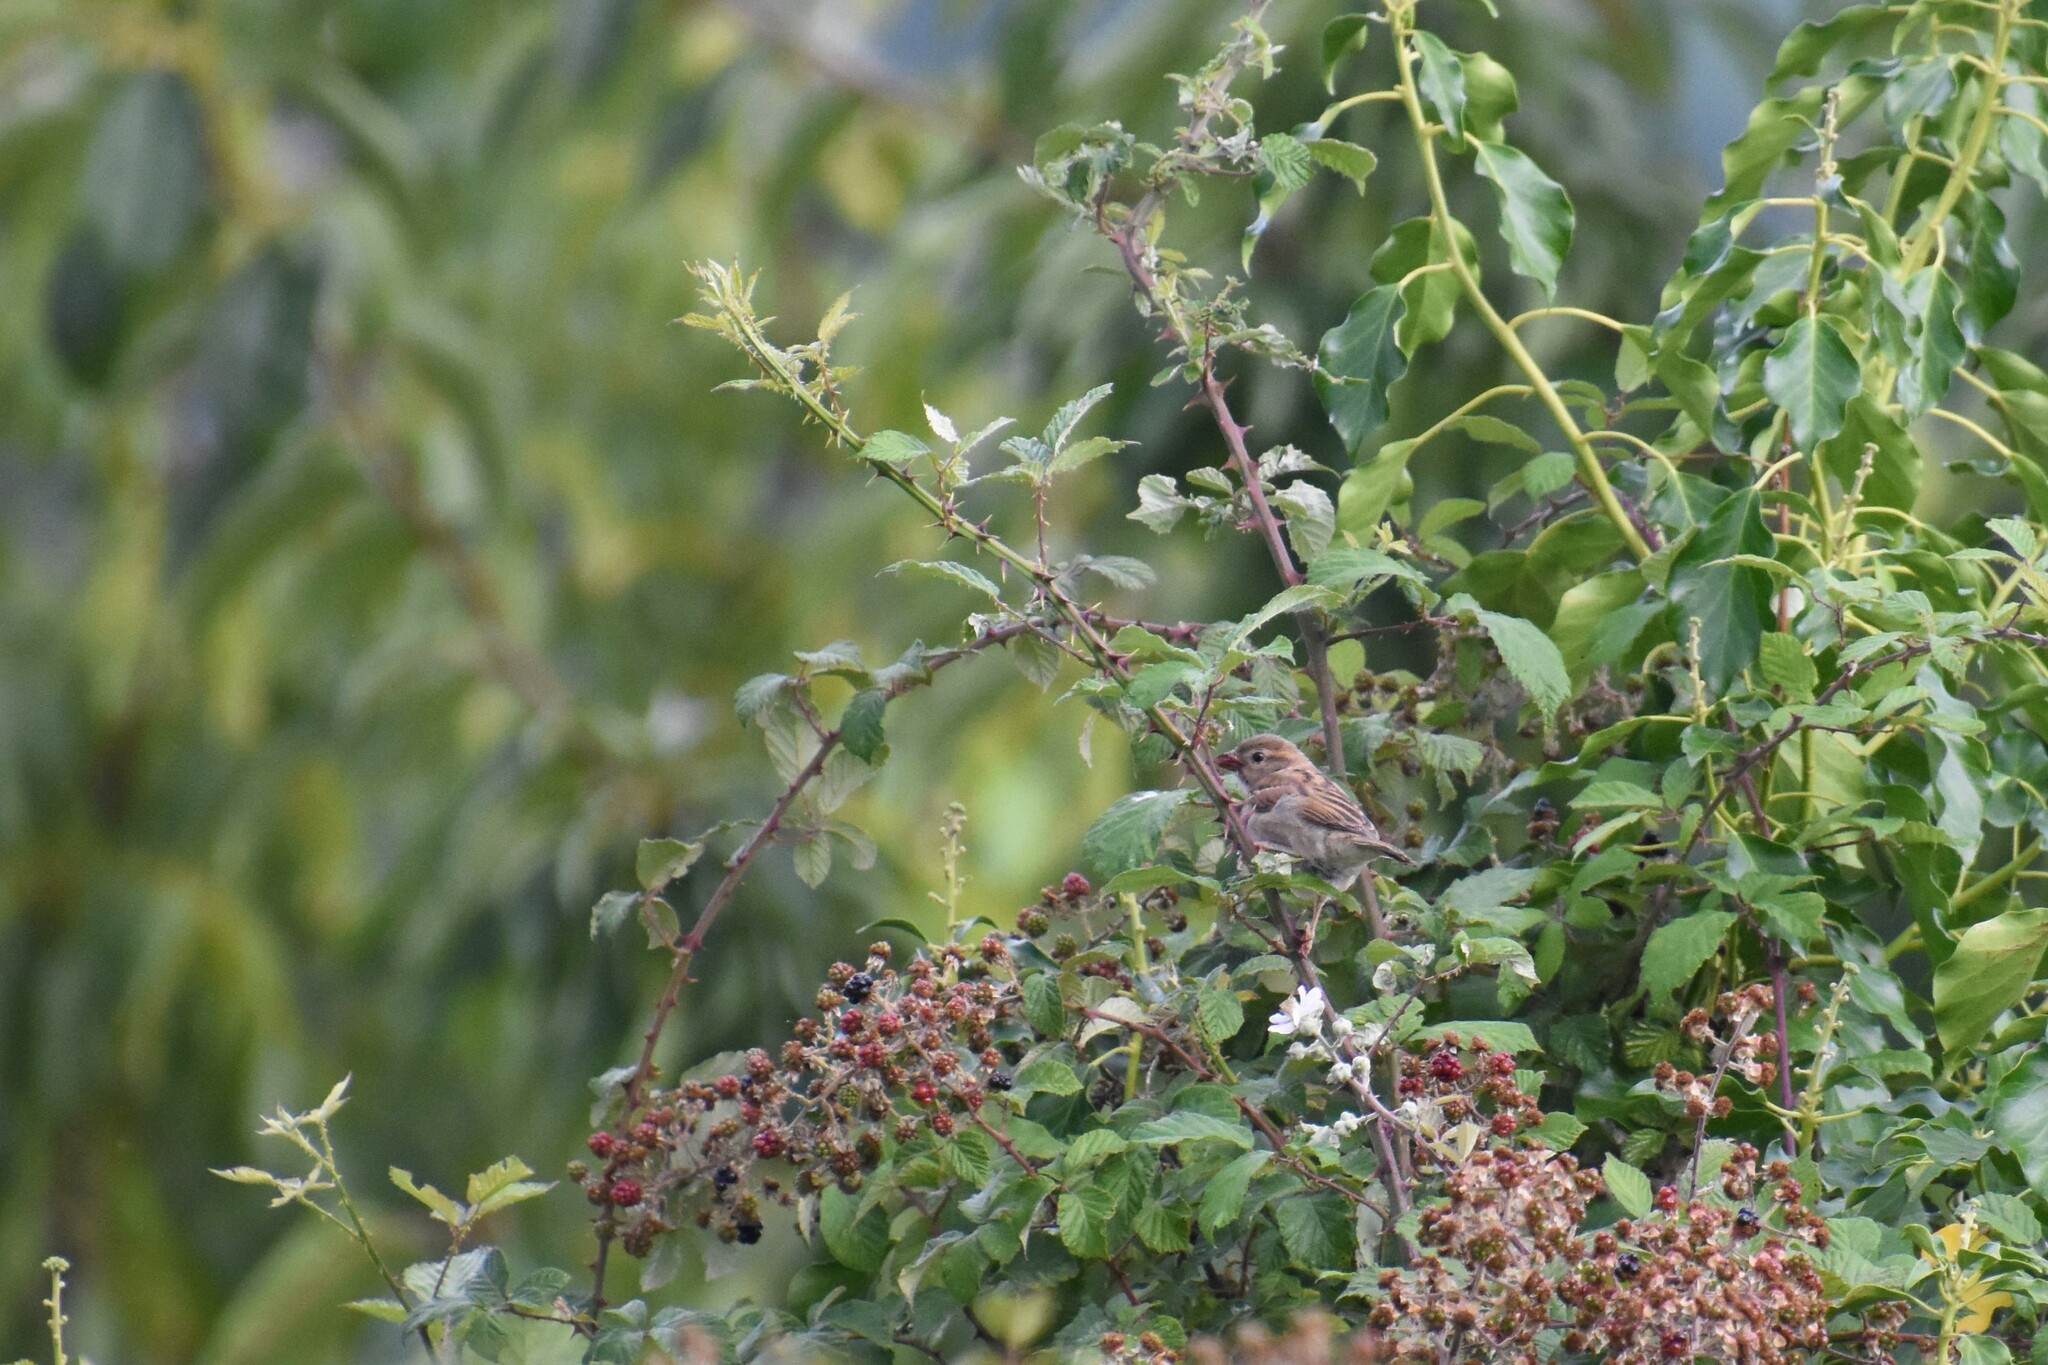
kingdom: Animalia
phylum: Chordata
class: Aves
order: Passeriformes
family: Passeridae
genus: Passer
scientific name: Passer domesticus
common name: House sparrow
